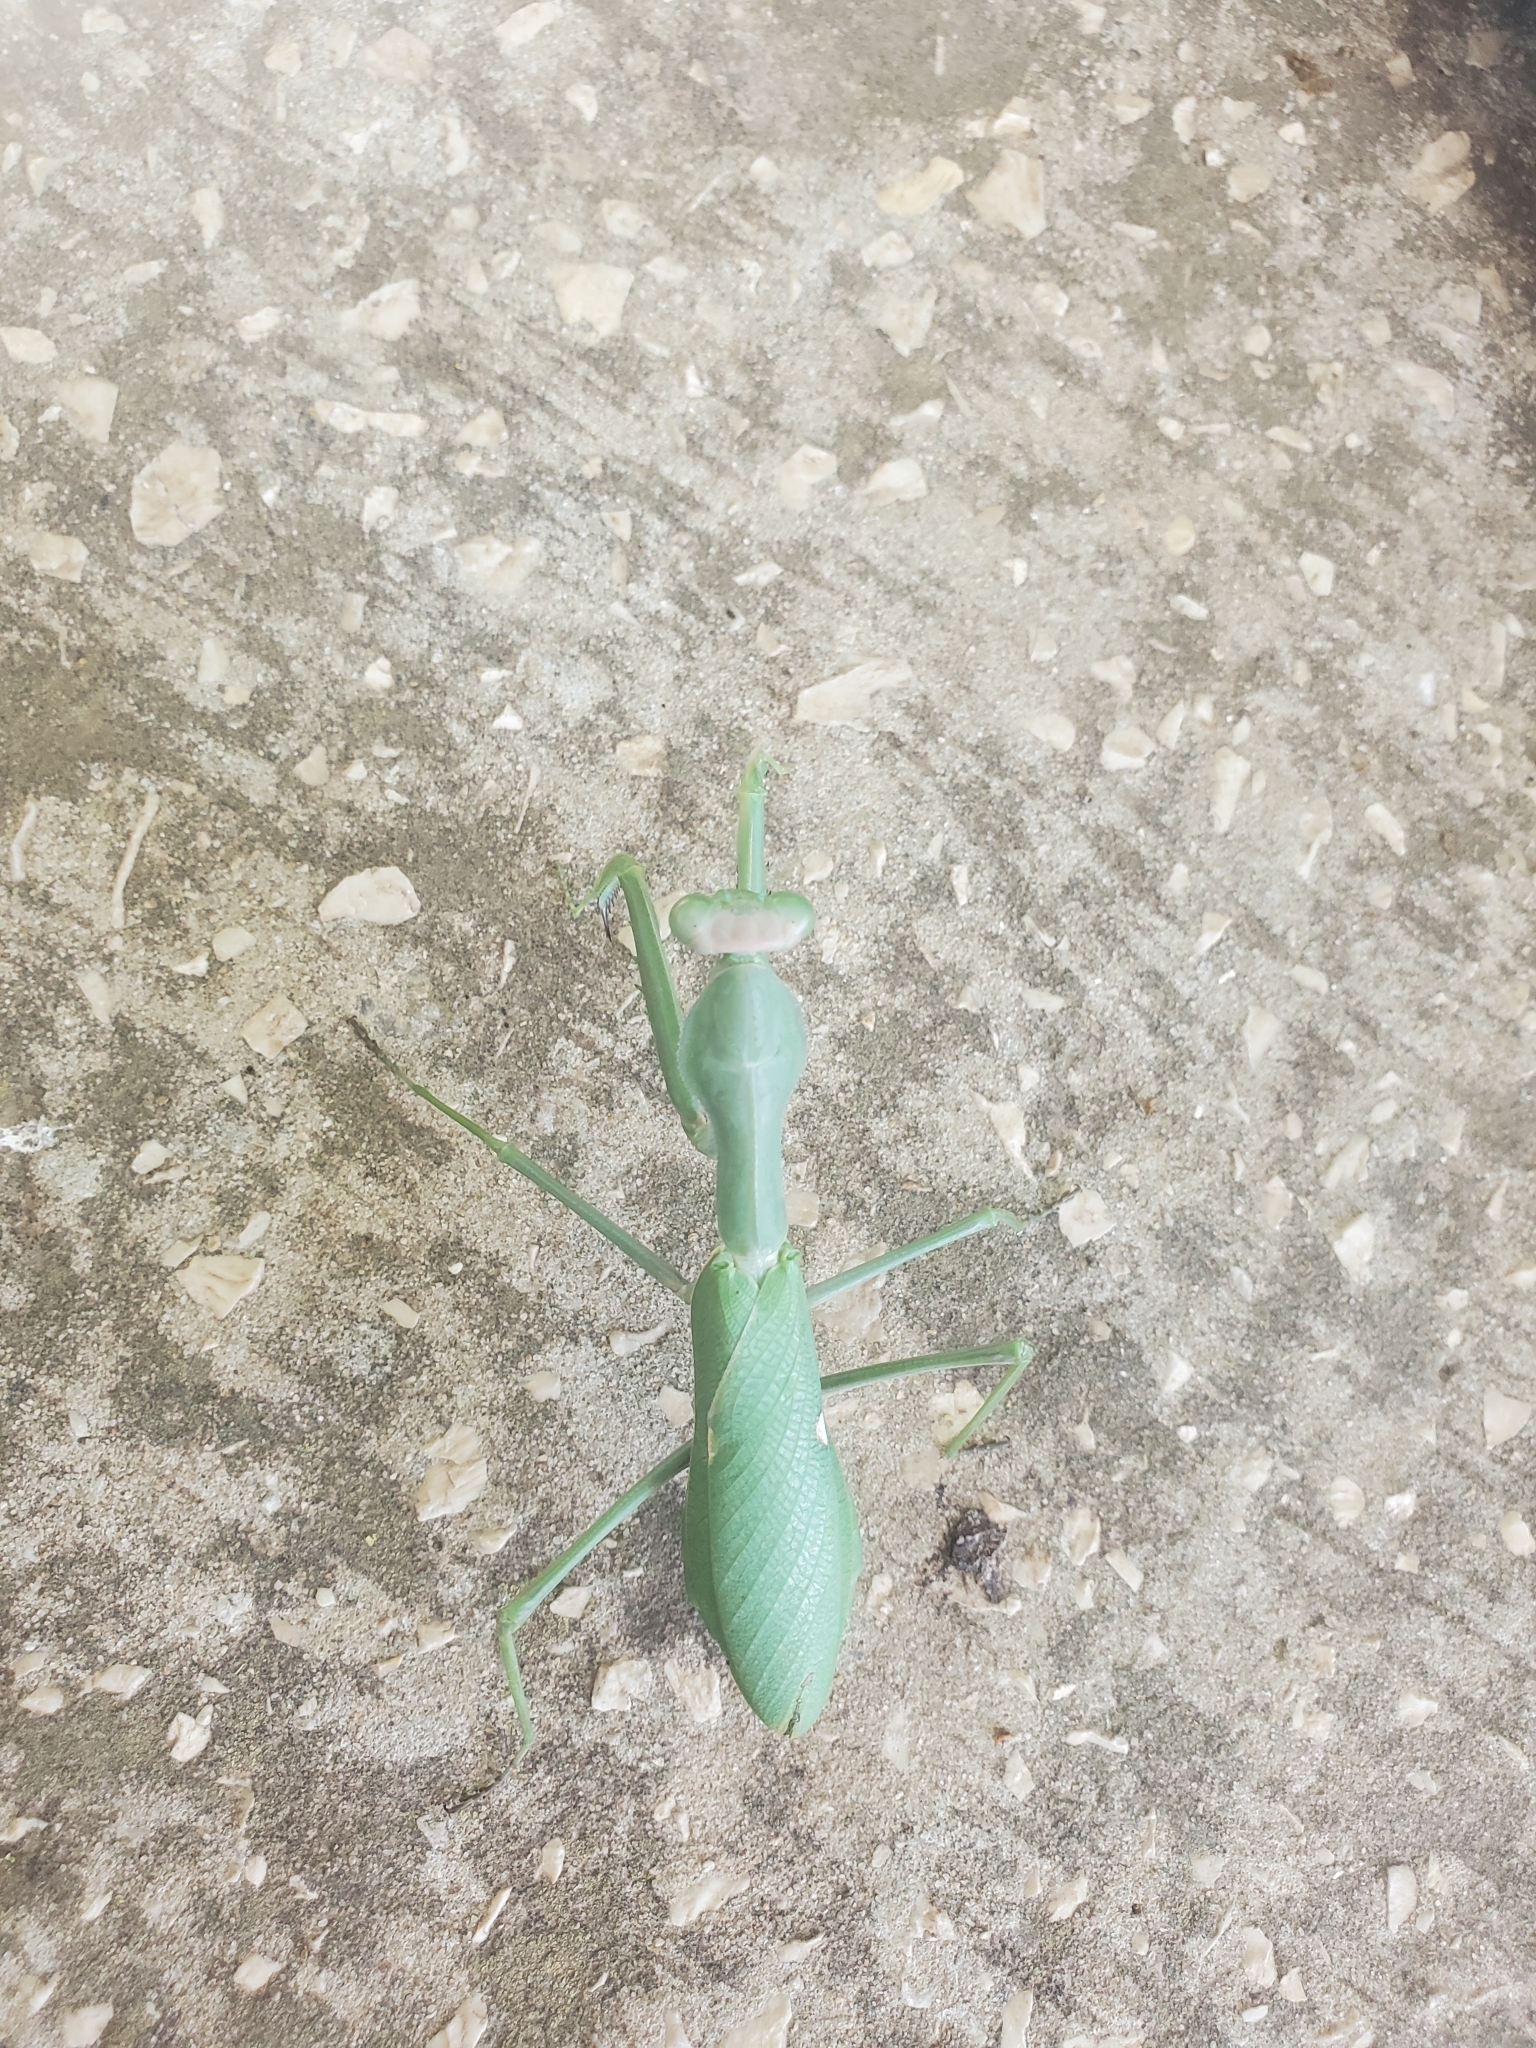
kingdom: Animalia
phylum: Arthropoda
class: Insecta
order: Mantodea
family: Mantidae
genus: Sphodromantis
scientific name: Sphodromantis viridis
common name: Giant african mantis
